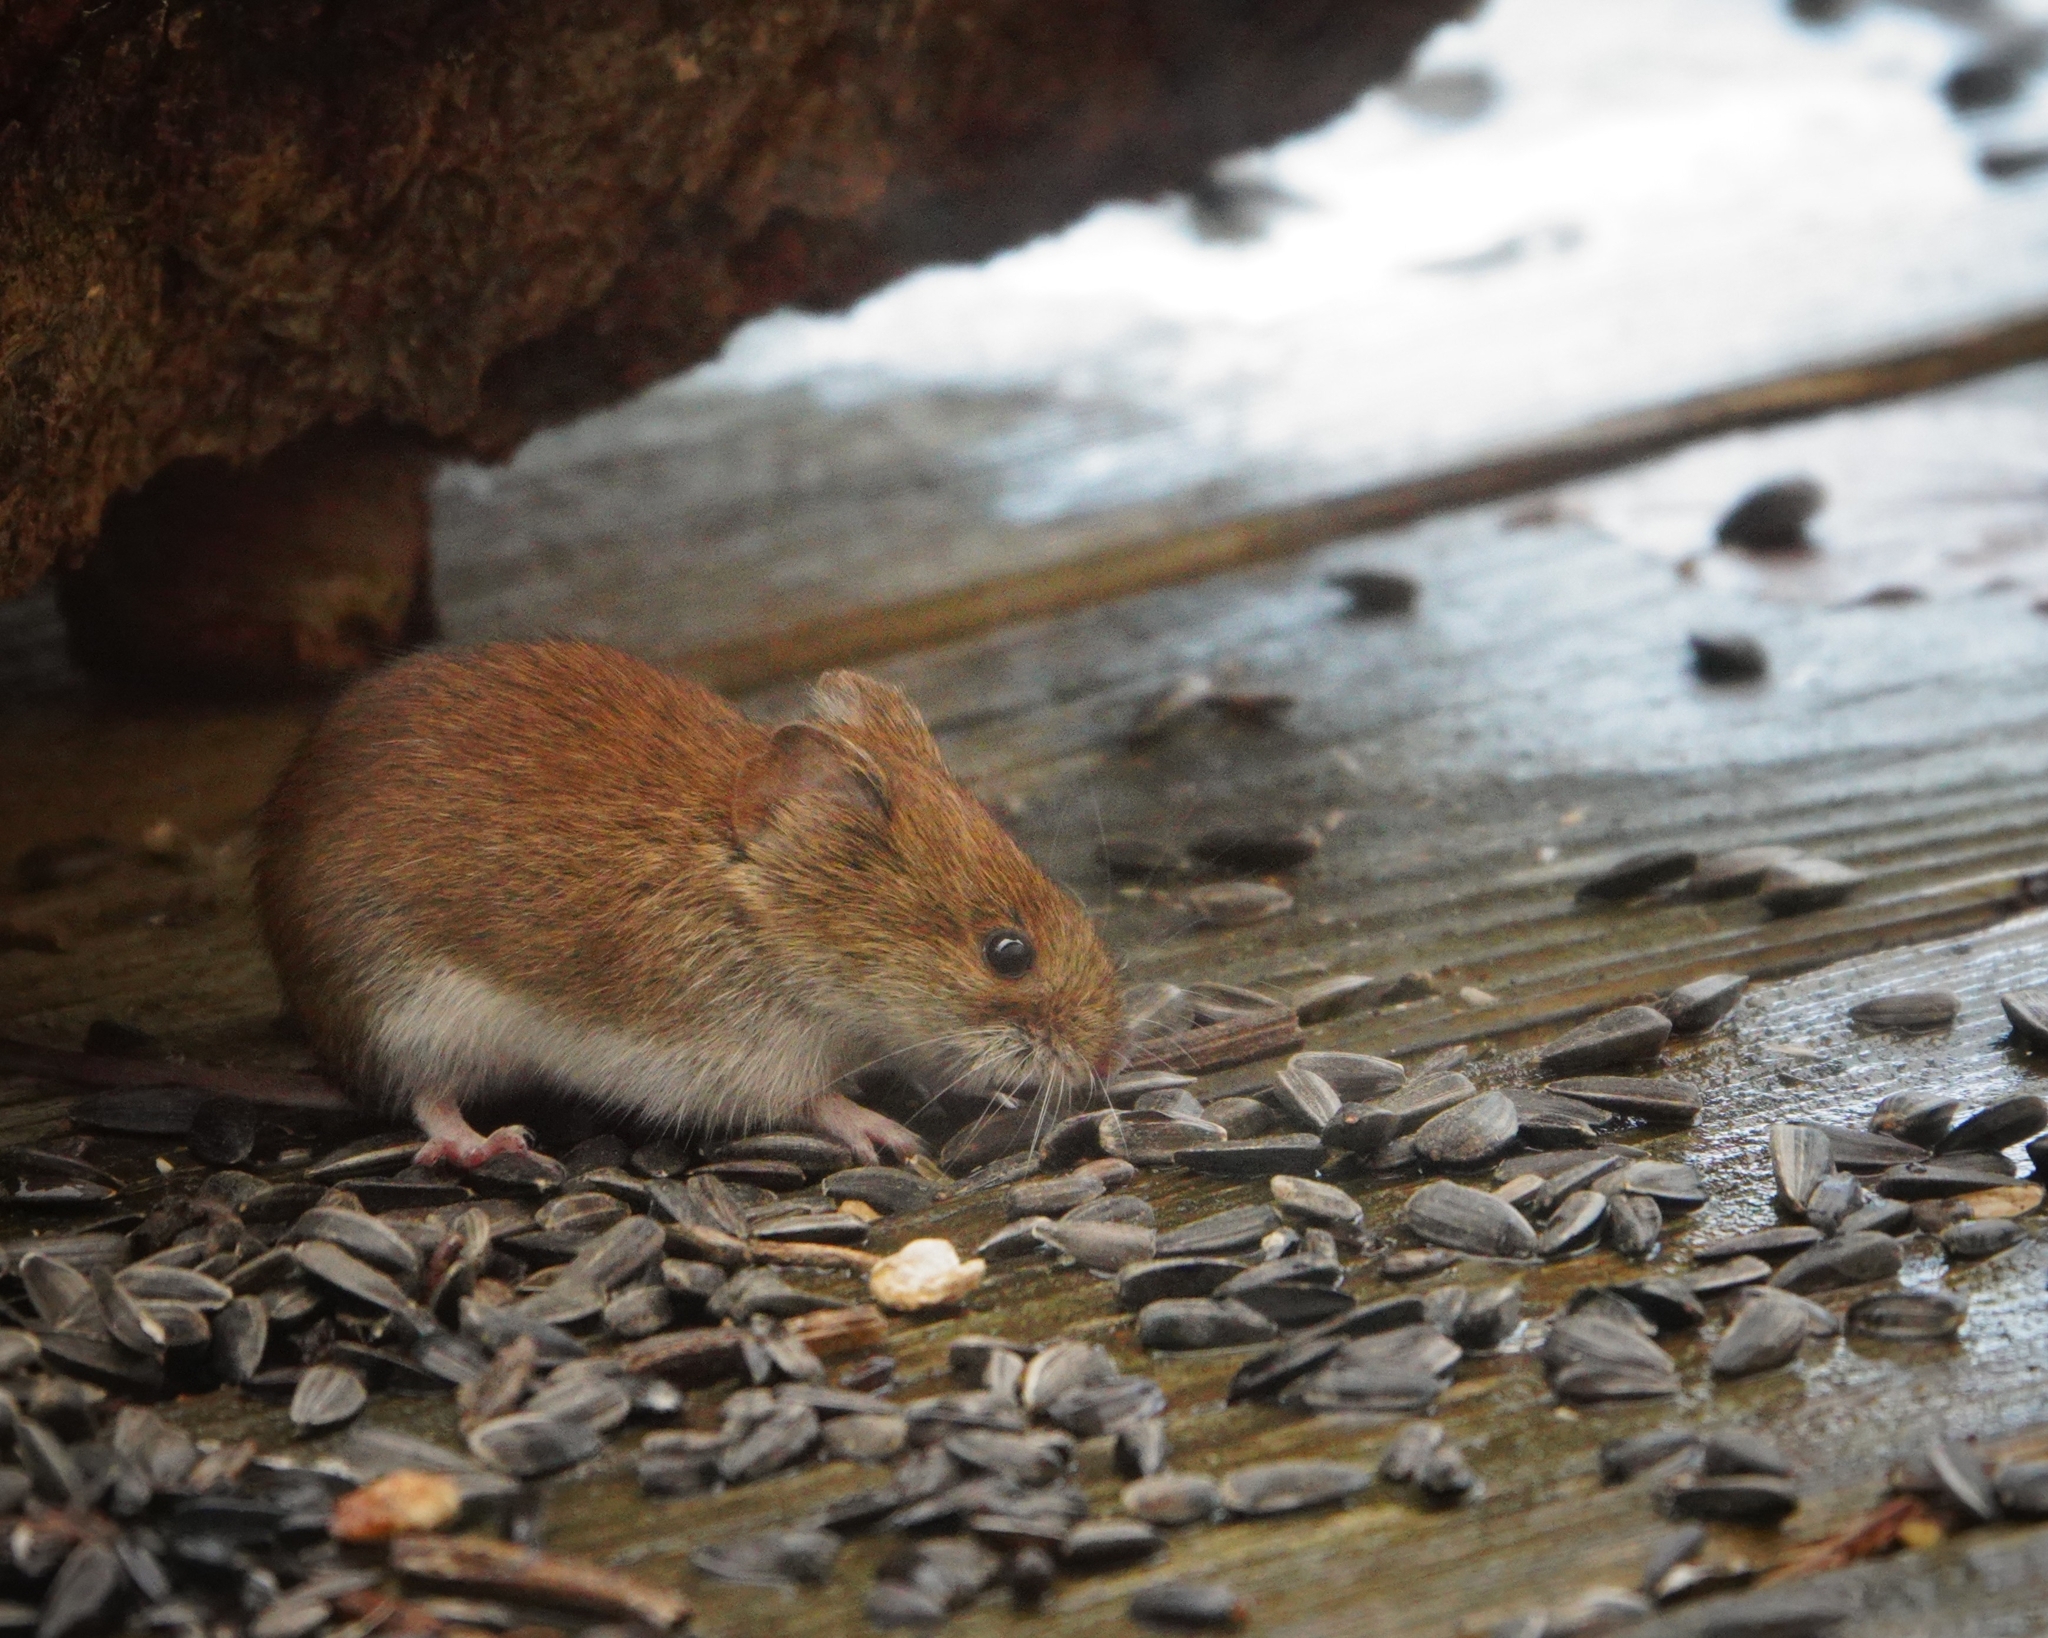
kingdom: Animalia
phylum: Chordata
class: Mammalia
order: Rodentia
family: Cricetidae
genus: Myodes
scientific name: Myodes glareolus
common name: Bank vole
